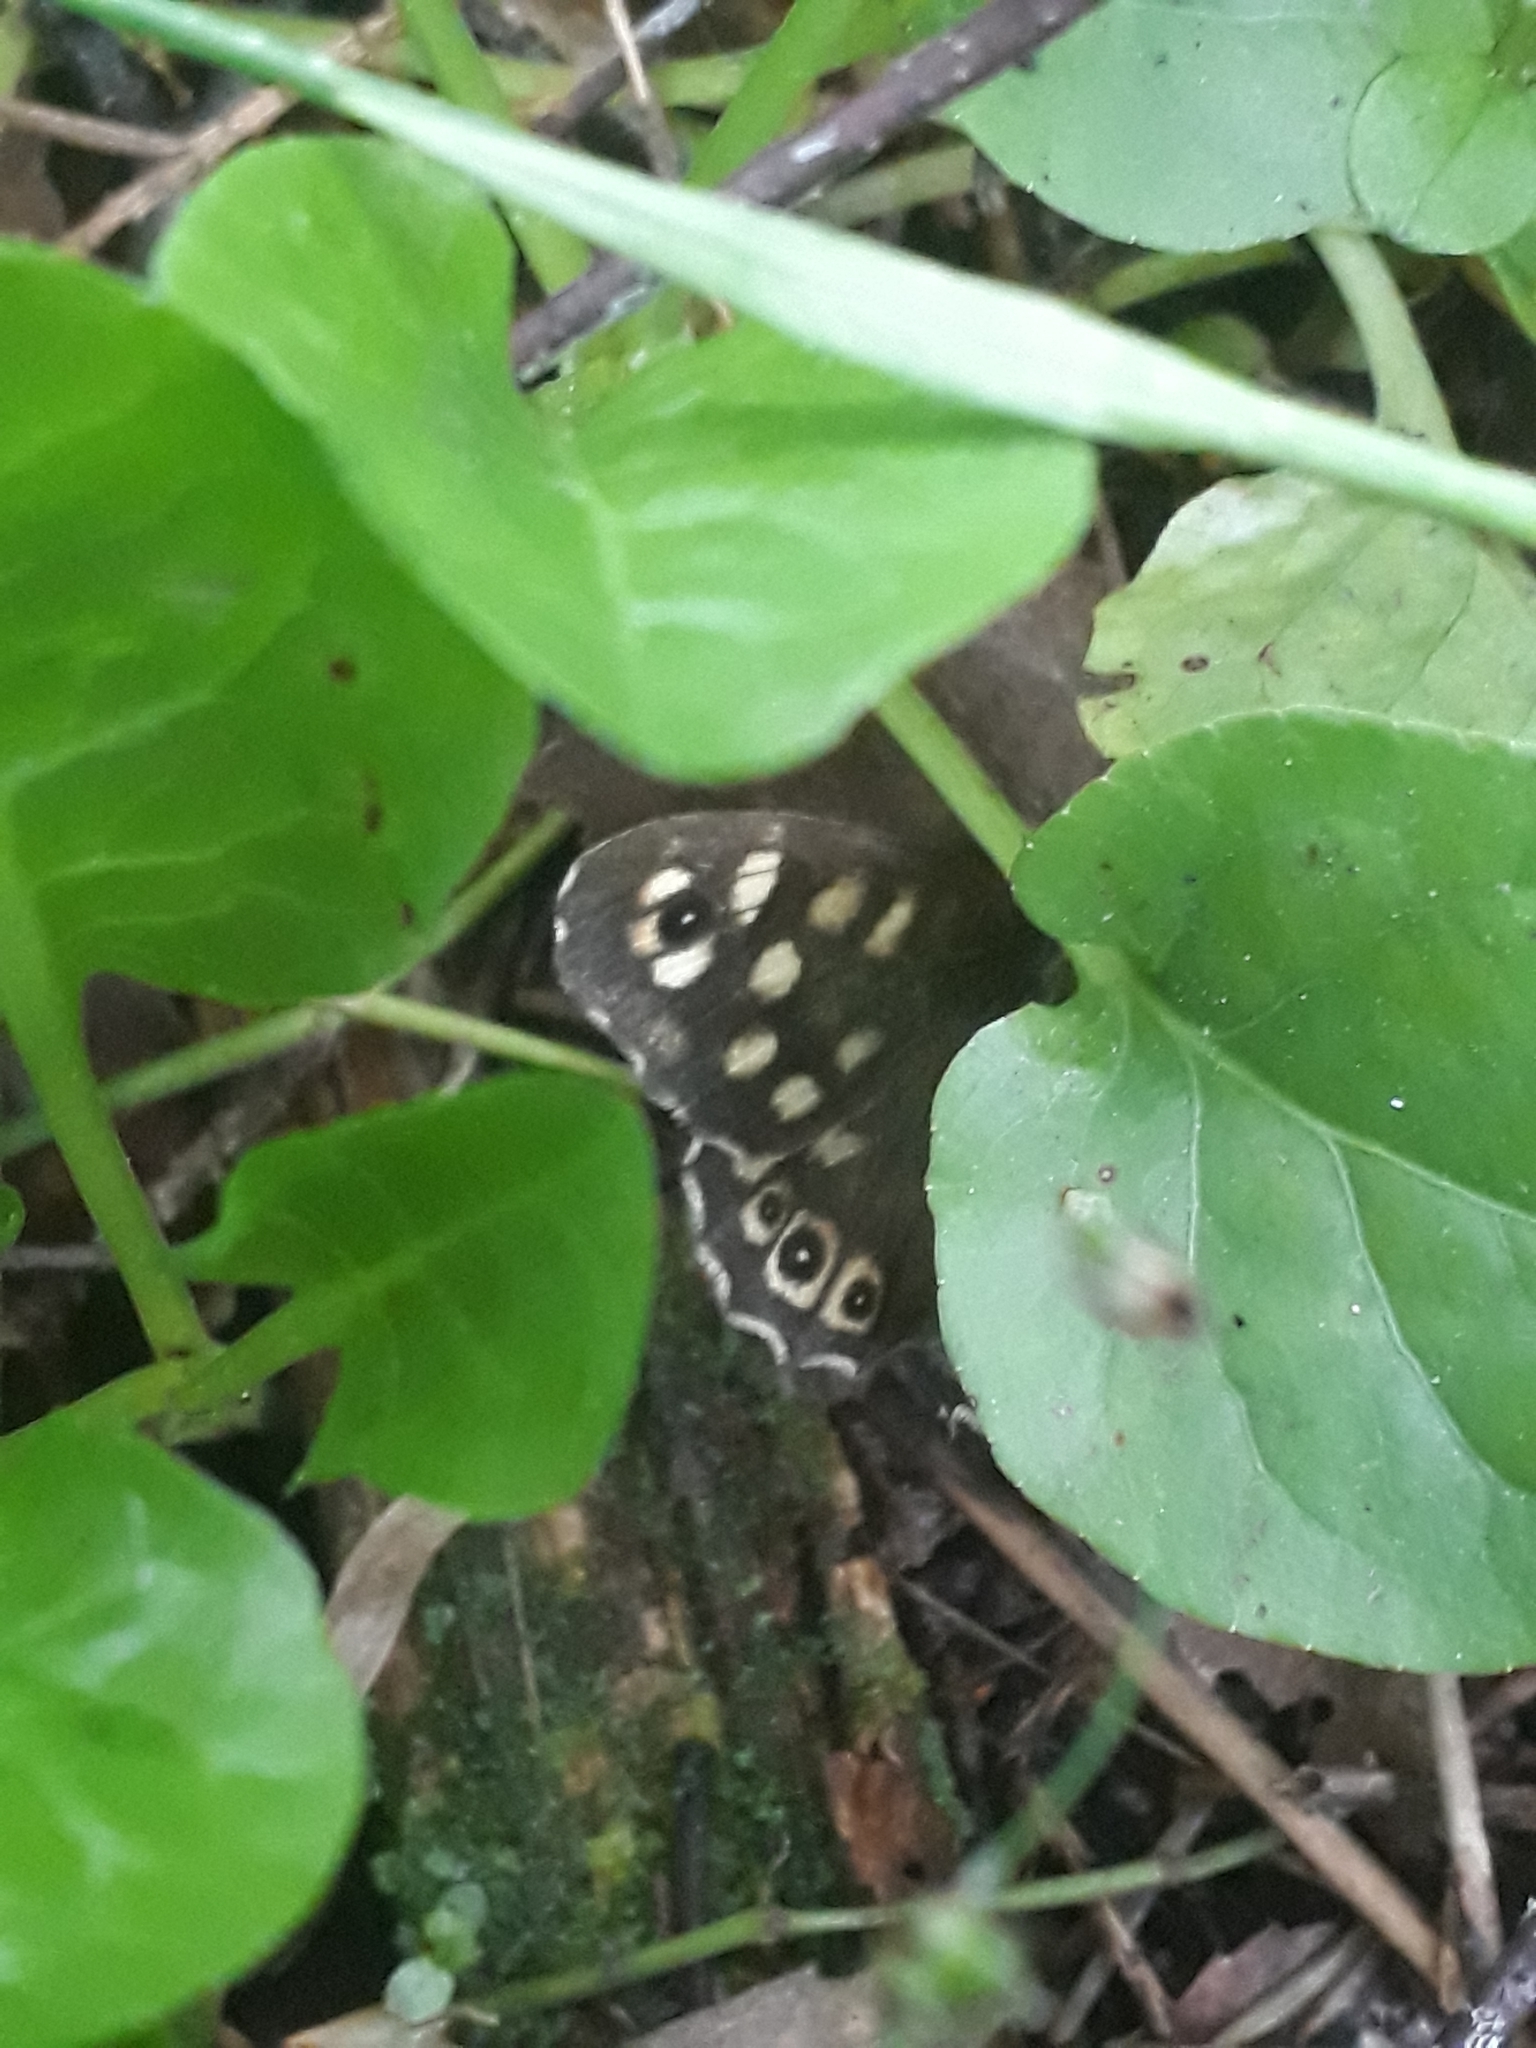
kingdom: Animalia
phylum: Arthropoda
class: Insecta
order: Lepidoptera
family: Nymphalidae
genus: Pararge
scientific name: Pararge aegeria
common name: Speckled wood
